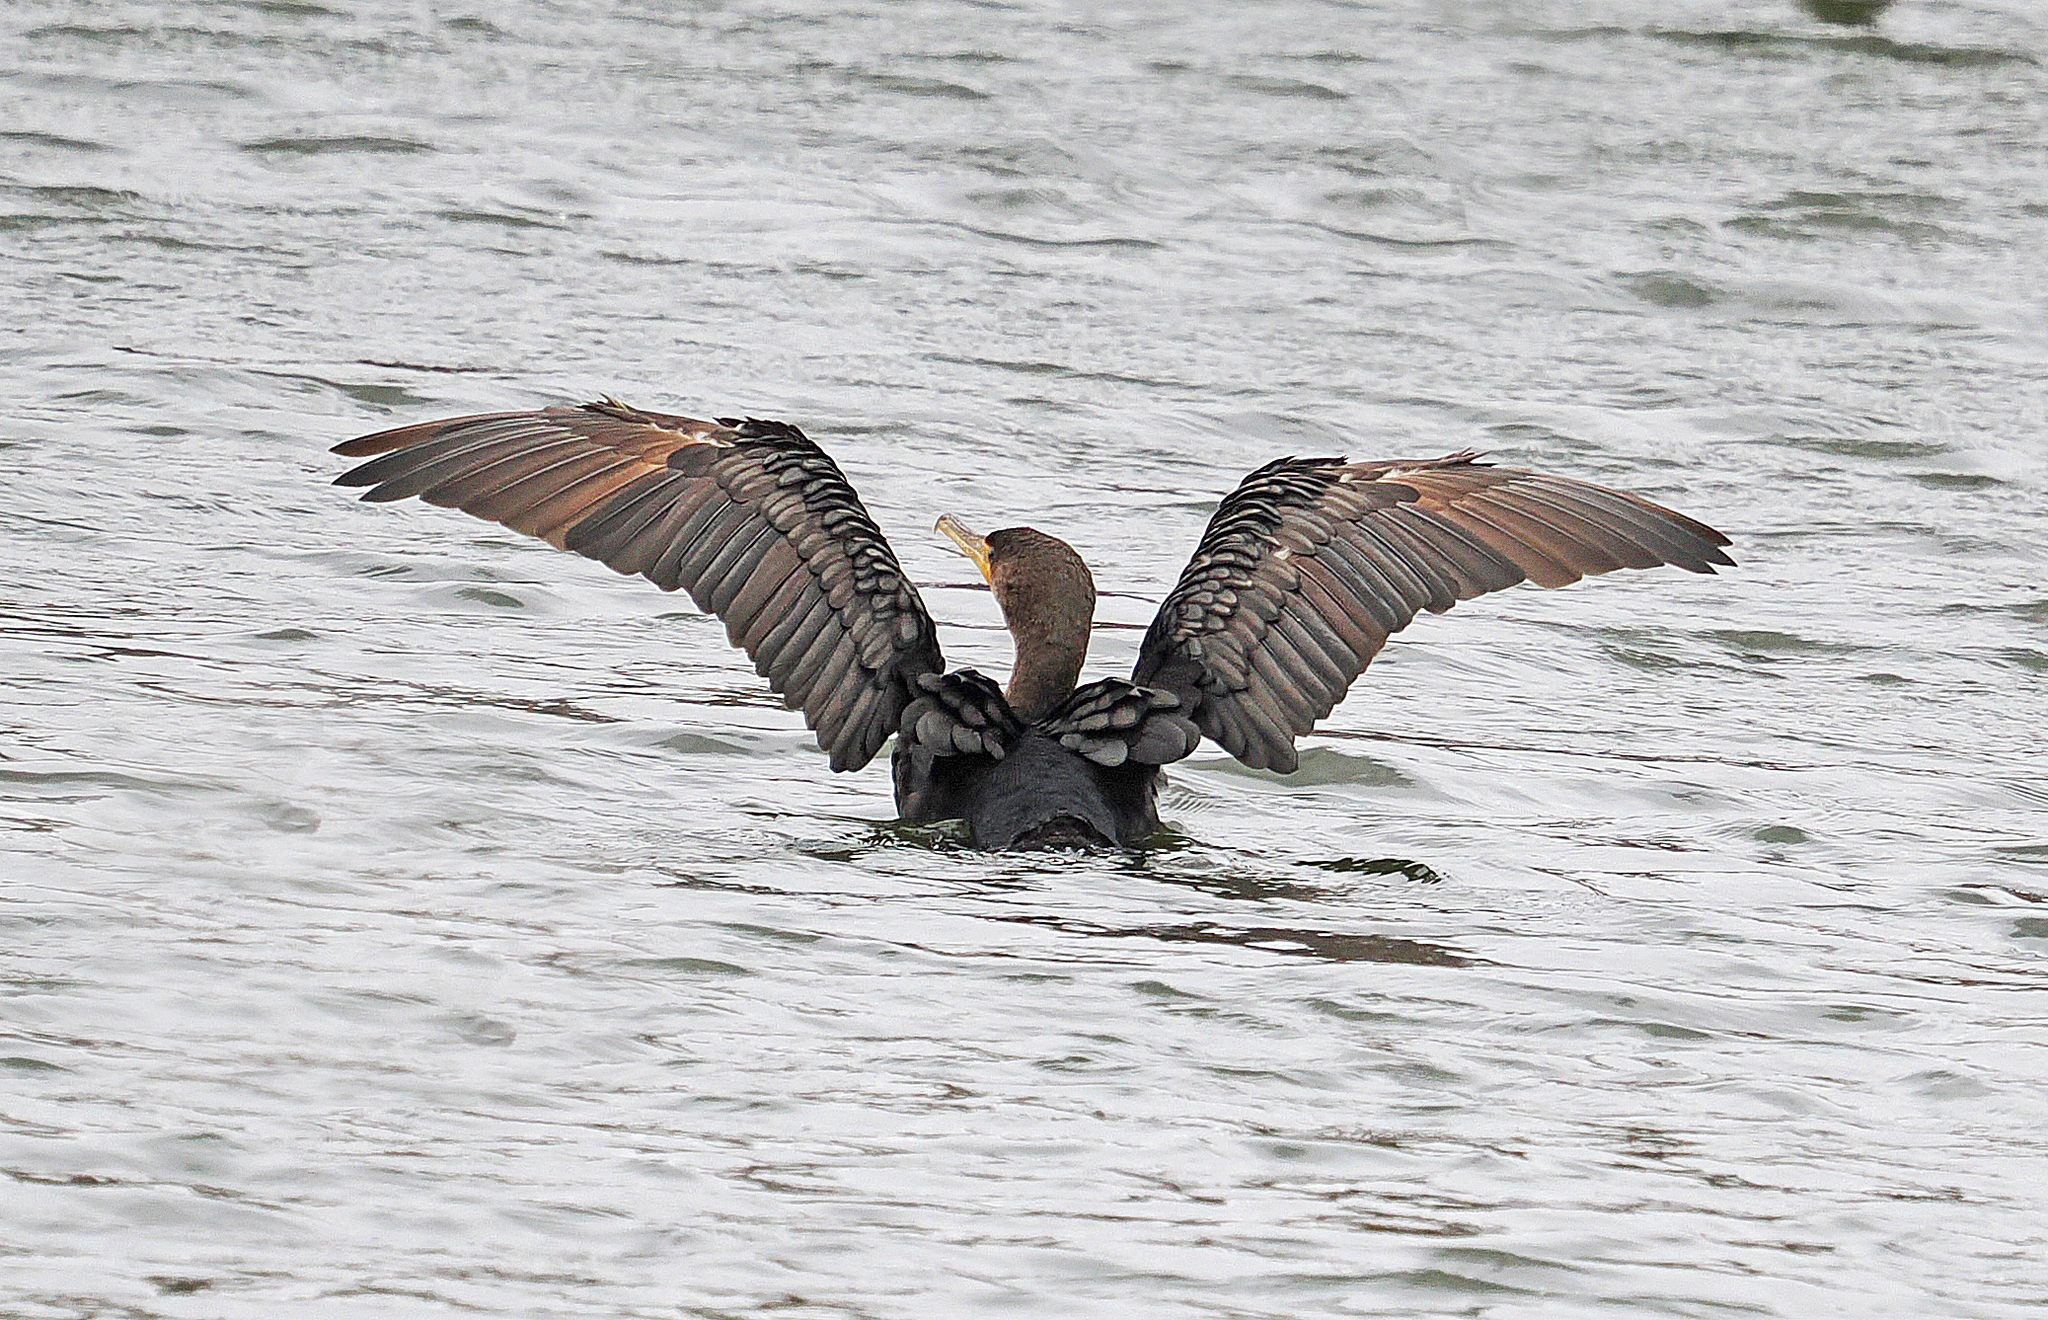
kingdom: Animalia
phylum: Chordata
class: Aves
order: Suliformes
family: Phalacrocoracidae
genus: Phalacrocorax
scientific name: Phalacrocorax auritus
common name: Double-crested cormorant
